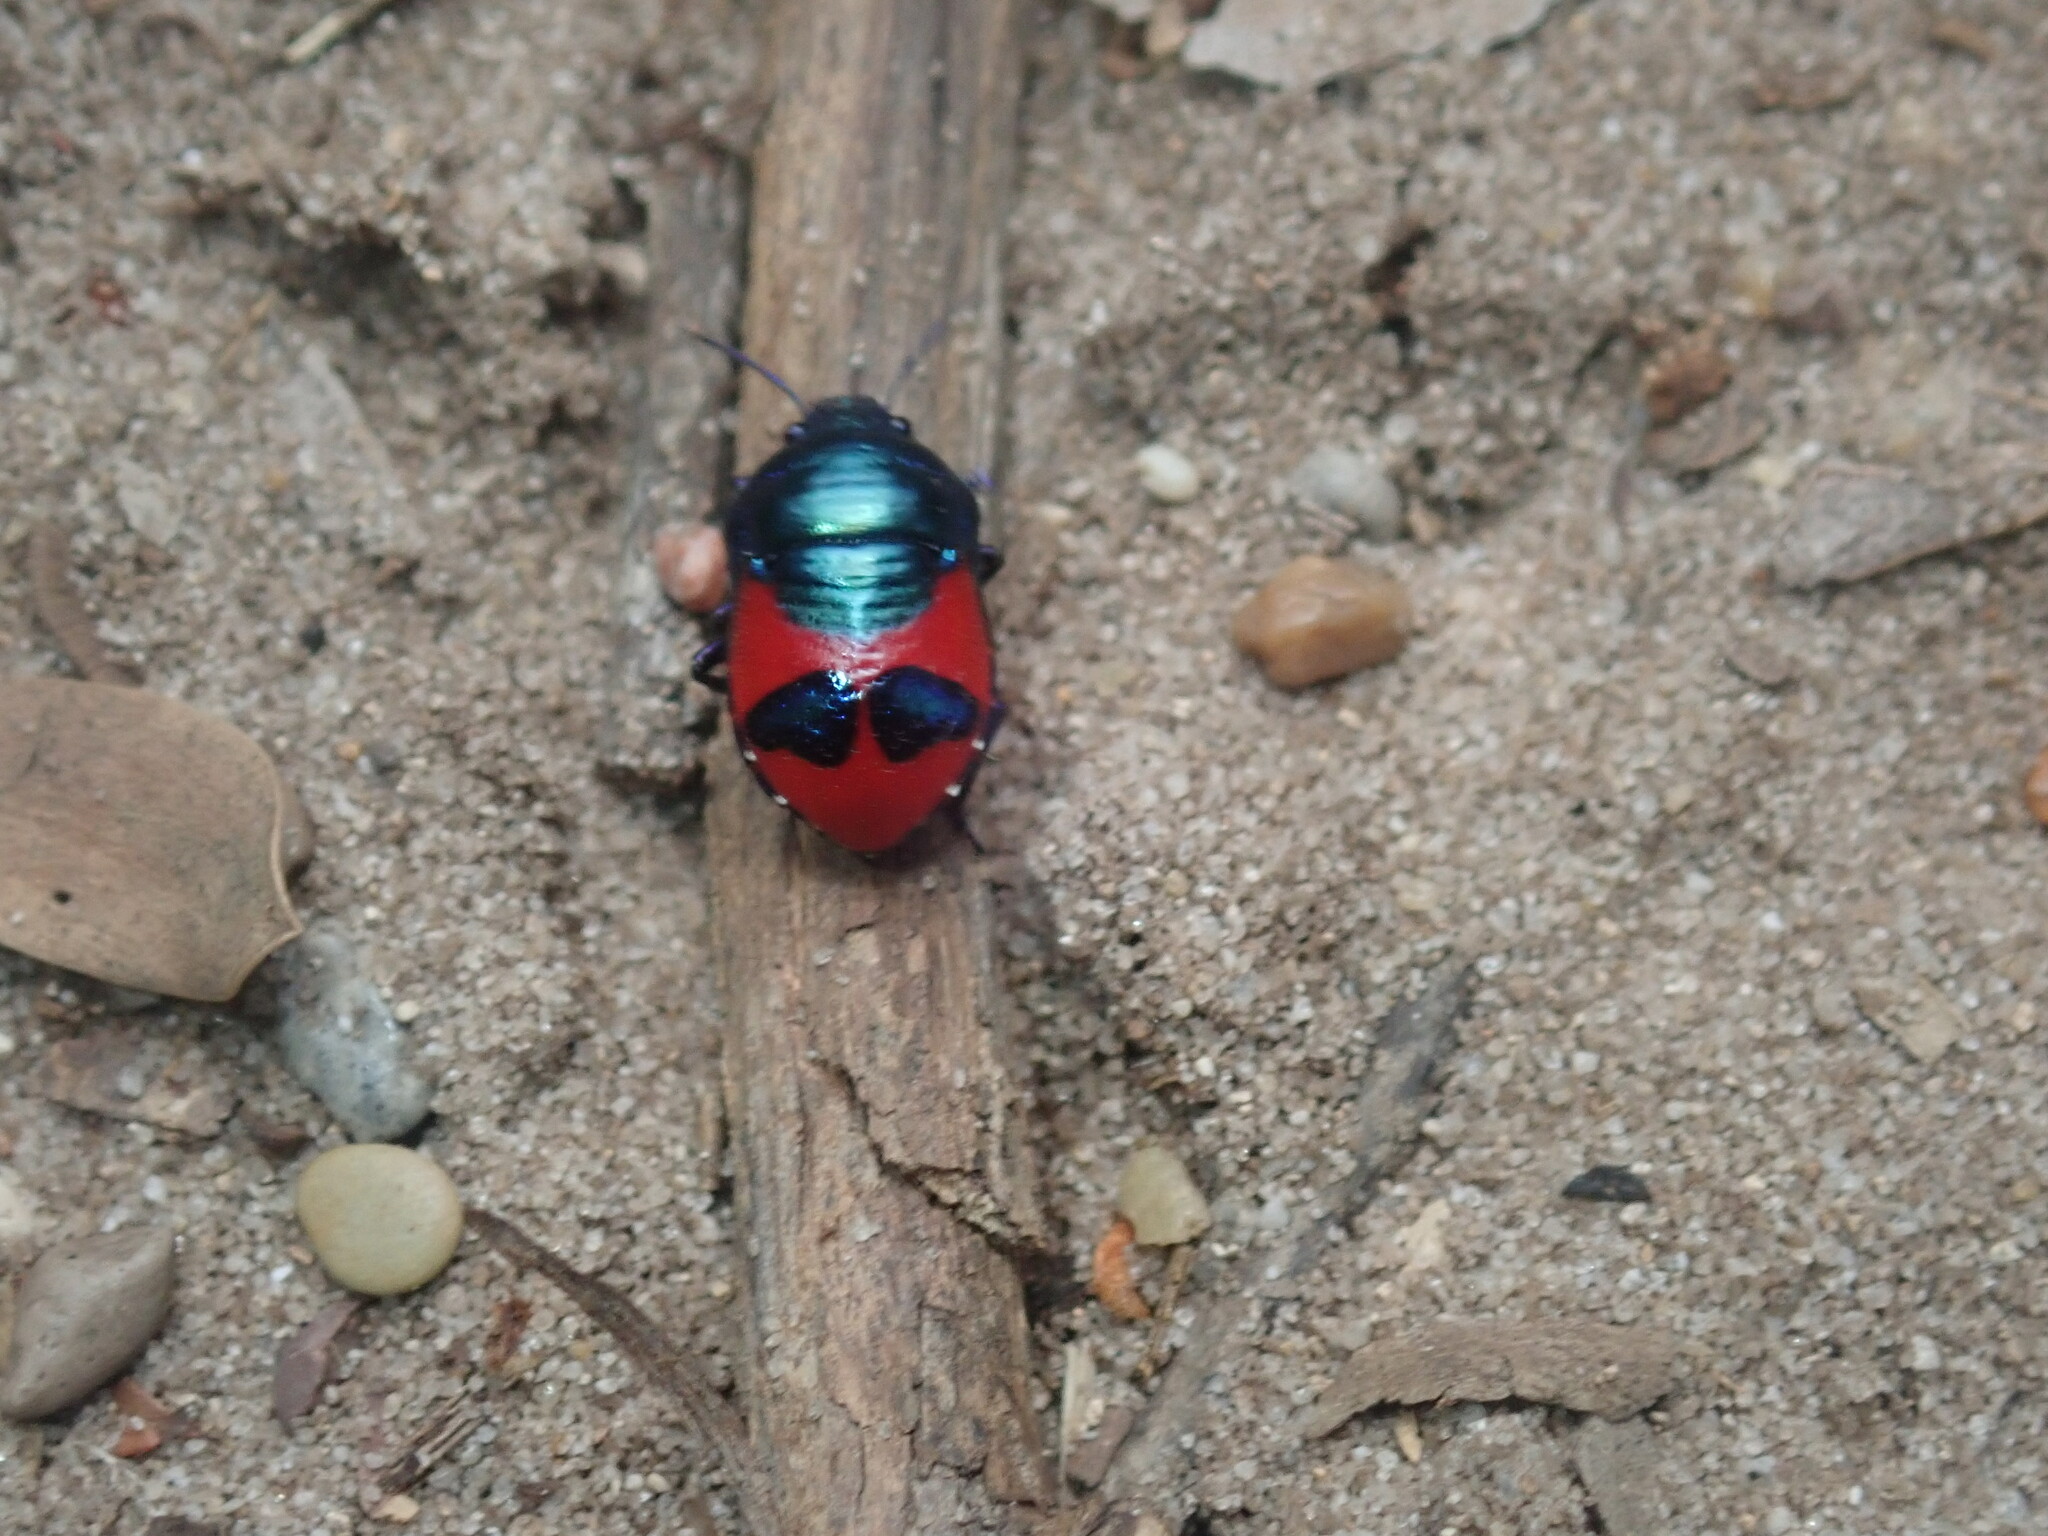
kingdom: Animalia
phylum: Arthropoda
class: Insecta
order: Hemiptera
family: Scutelleridae
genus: Choerocoris
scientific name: Choerocoris paganus
